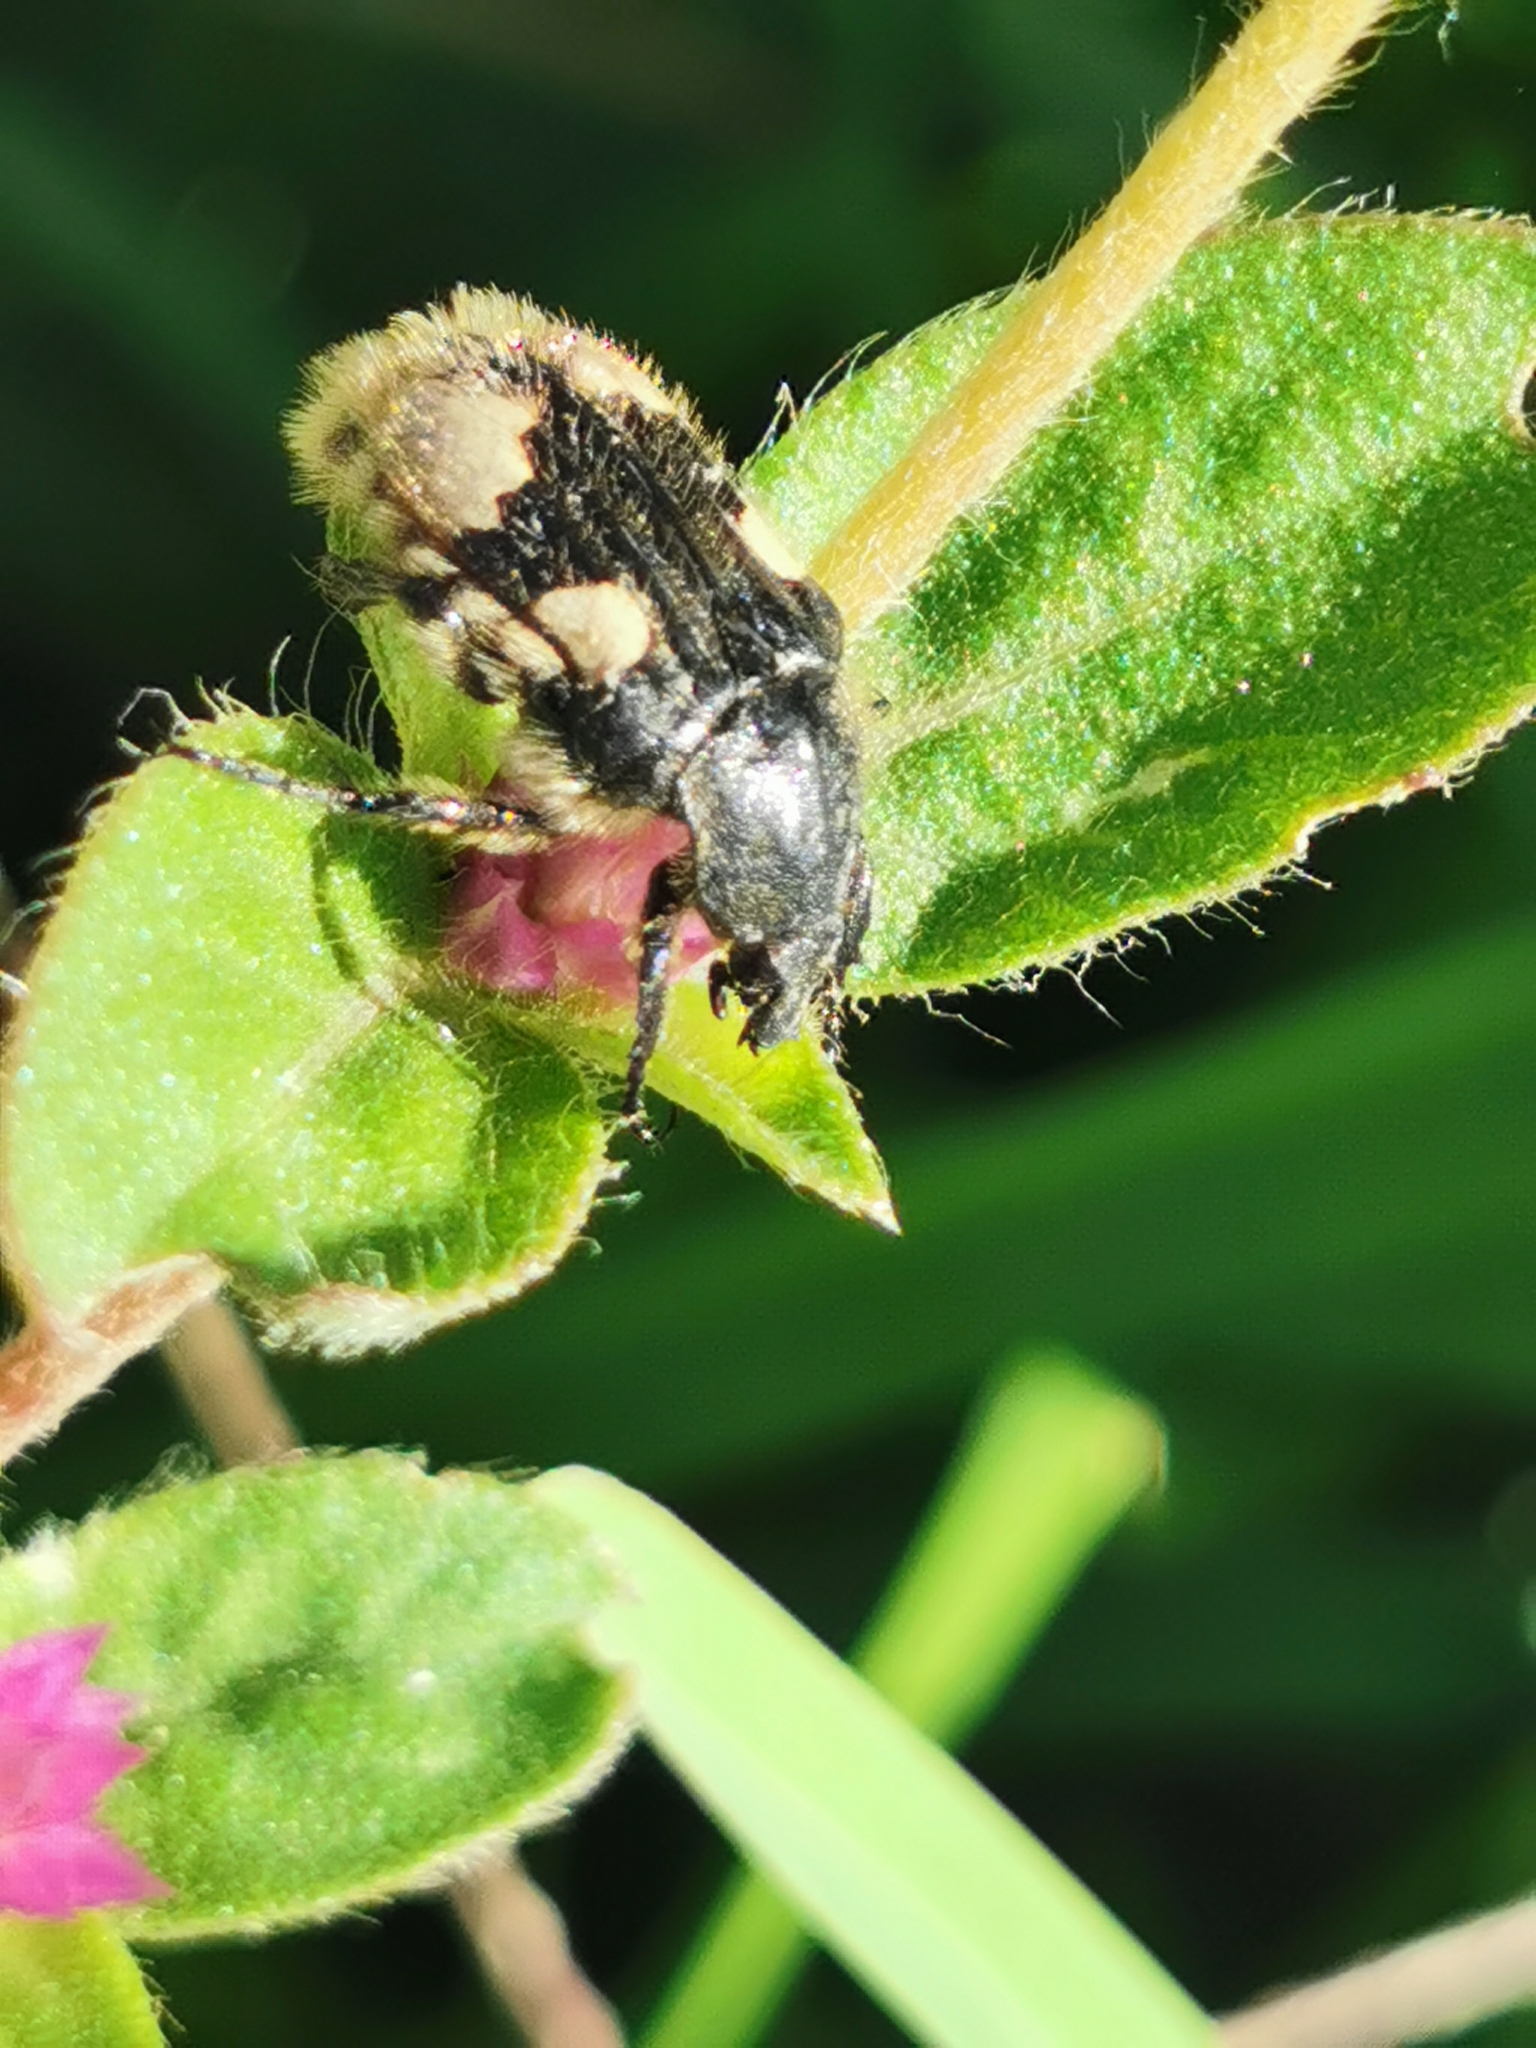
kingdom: Animalia
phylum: Arthropoda
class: Insecta
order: Coleoptera
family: Scarabaeidae
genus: Euphoria
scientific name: Euphoria basalis
